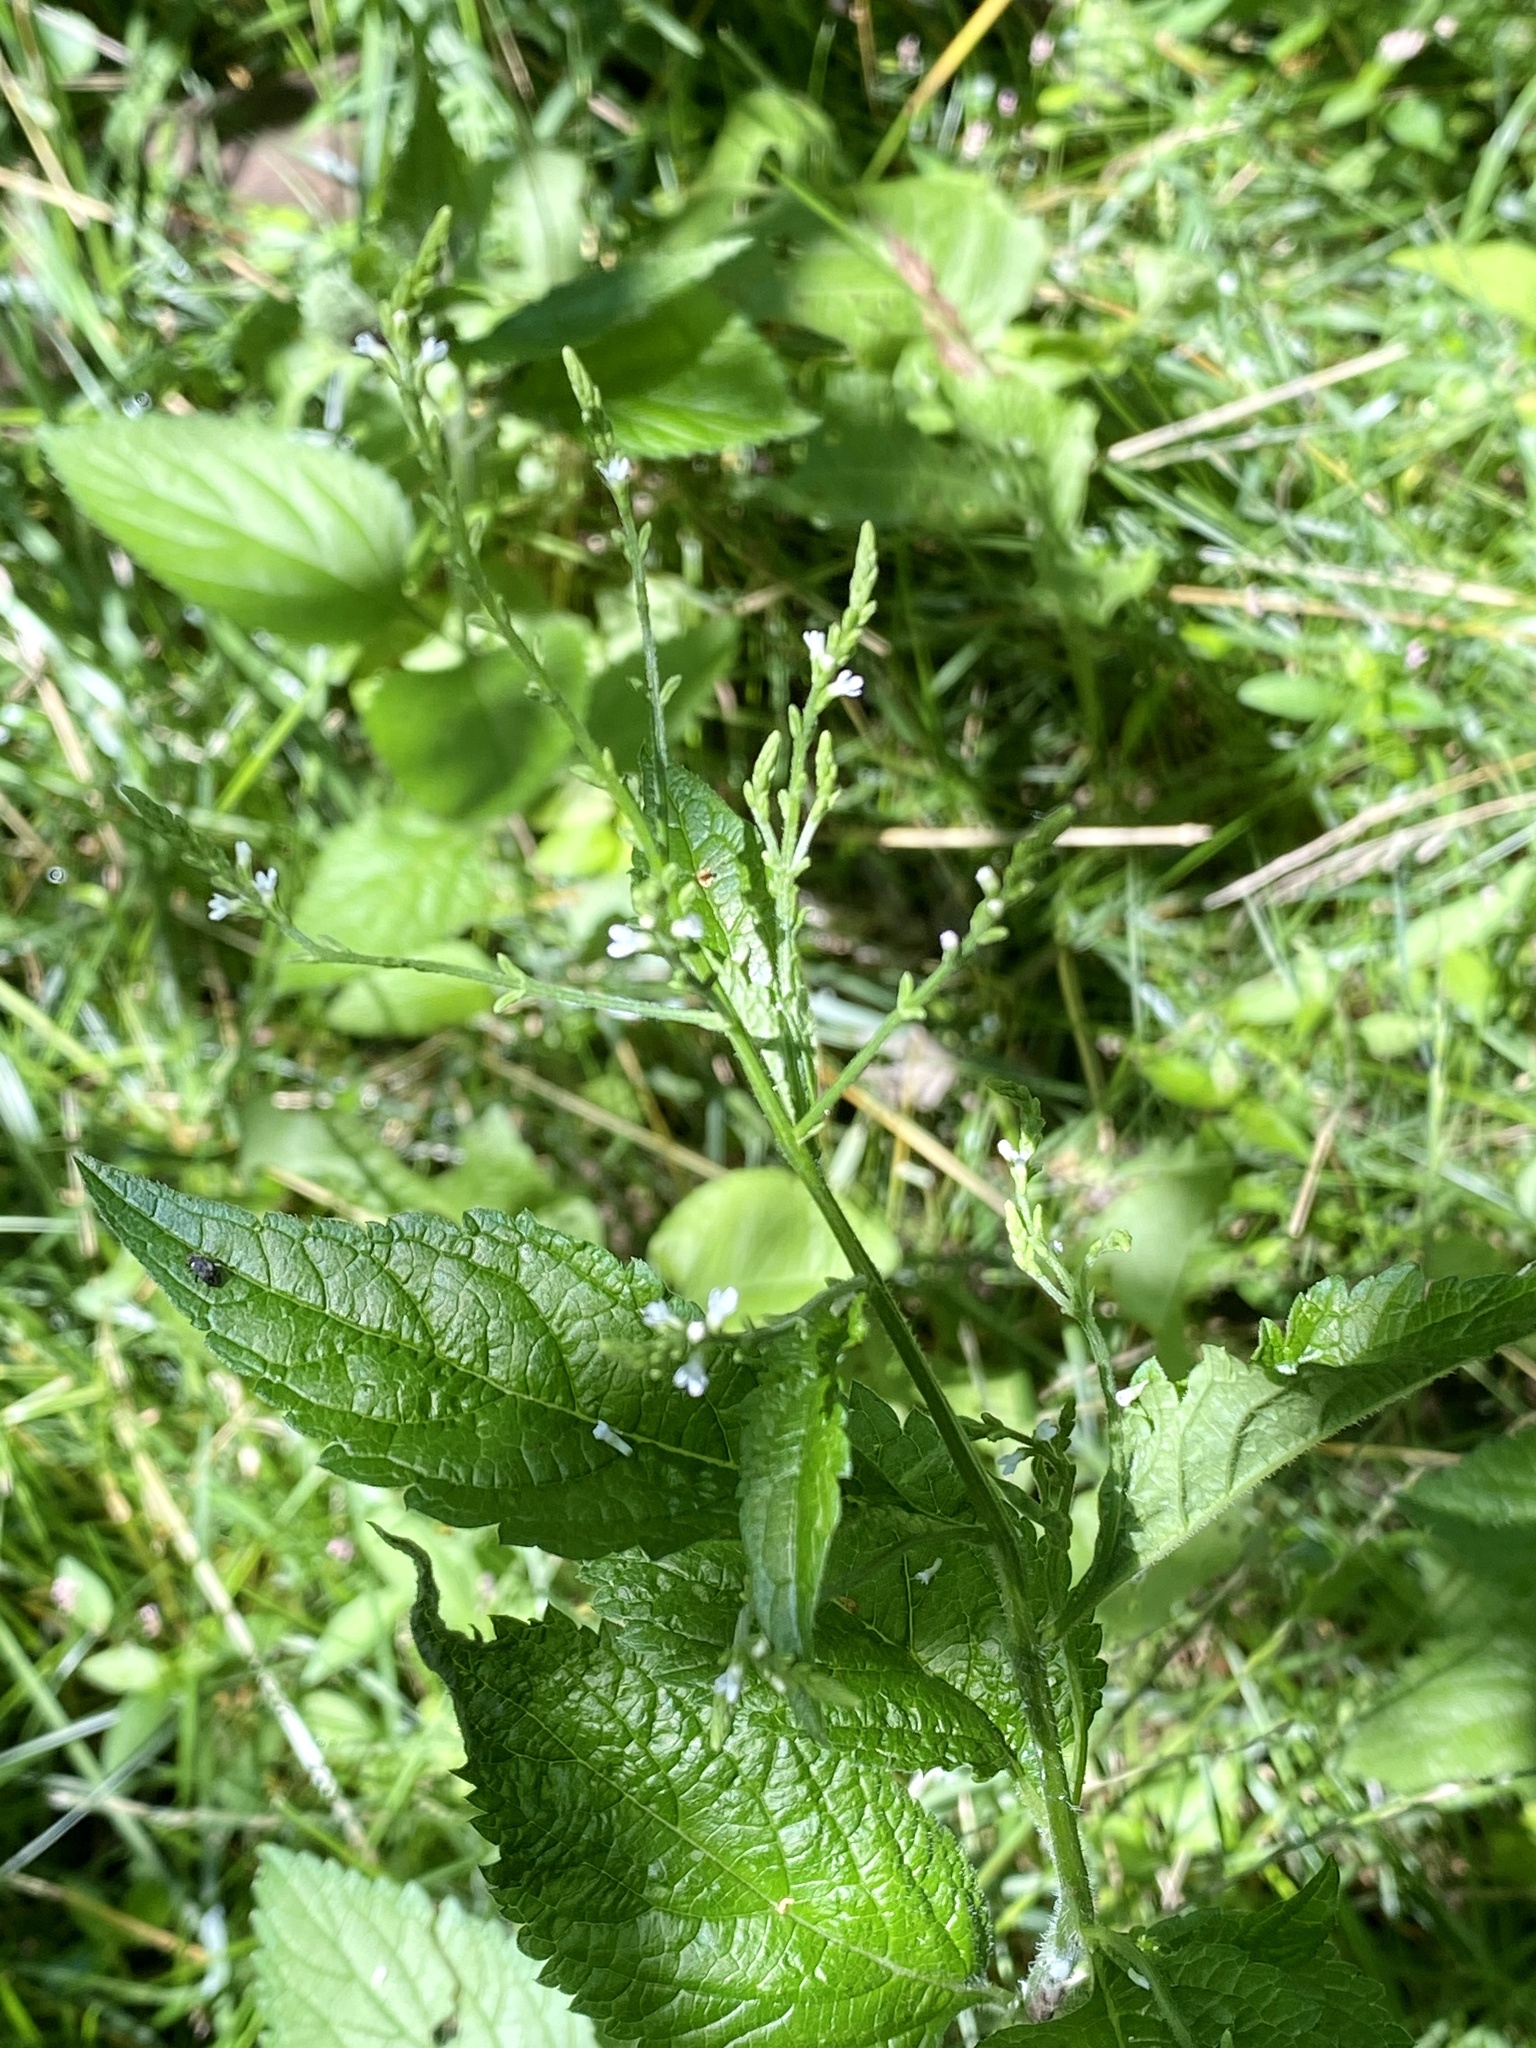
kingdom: Plantae
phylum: Tracheophyta
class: Magnoliopsida
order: Lamiales
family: Verbenaceae
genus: Verbena
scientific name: Verbena urticifolia
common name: Nettle-leaved vervain
